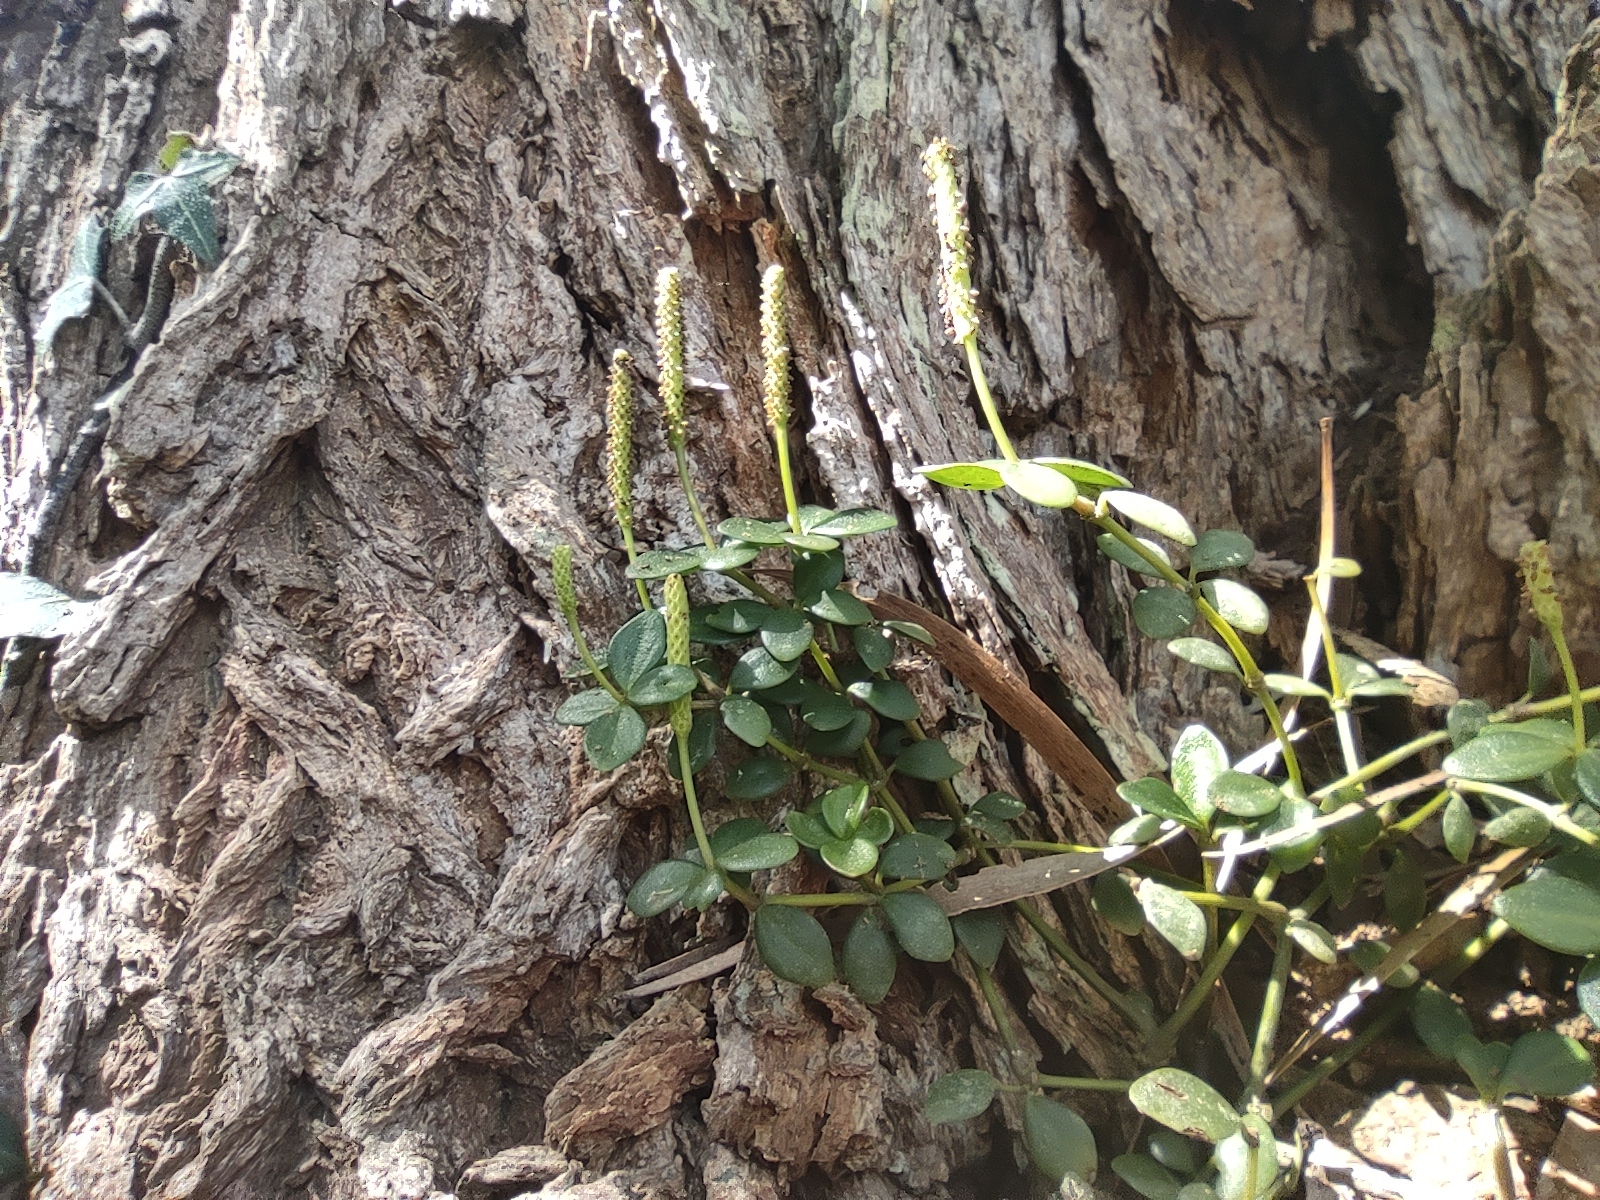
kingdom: Plantae
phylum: Tracheophyta
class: Magnoliopsida
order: Piperales
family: Piperaceae
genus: Peperomia
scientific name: Peperomia tetraphylla
